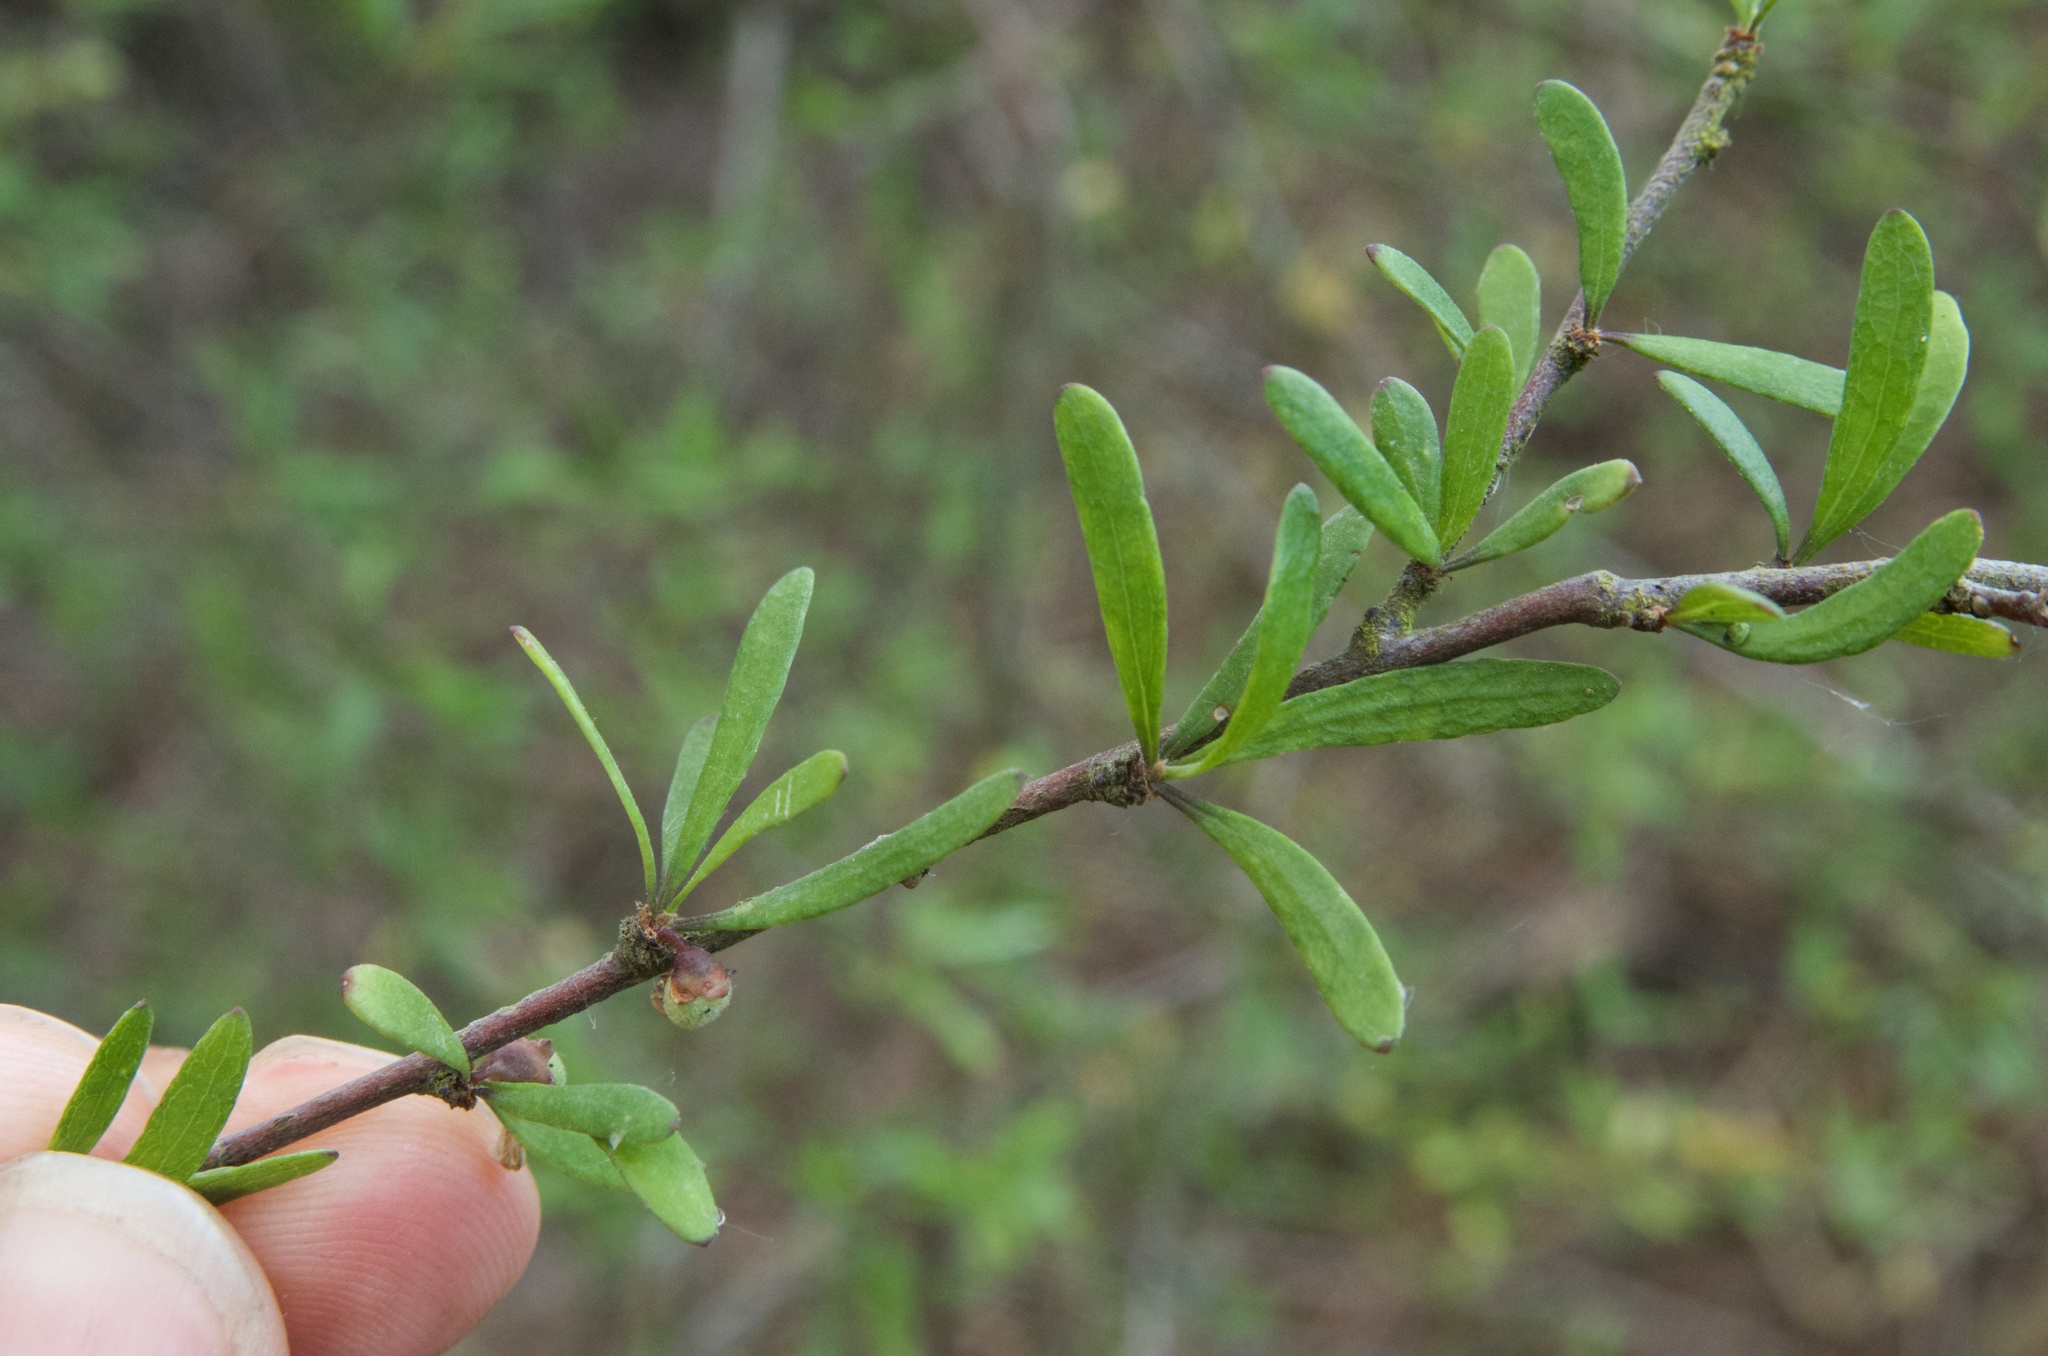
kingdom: Plantae
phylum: Tracheophyta
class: Magnoliopsida
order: Malvales
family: Malvaceae
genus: Plagianthus
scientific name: Plagianthus divaricatus
